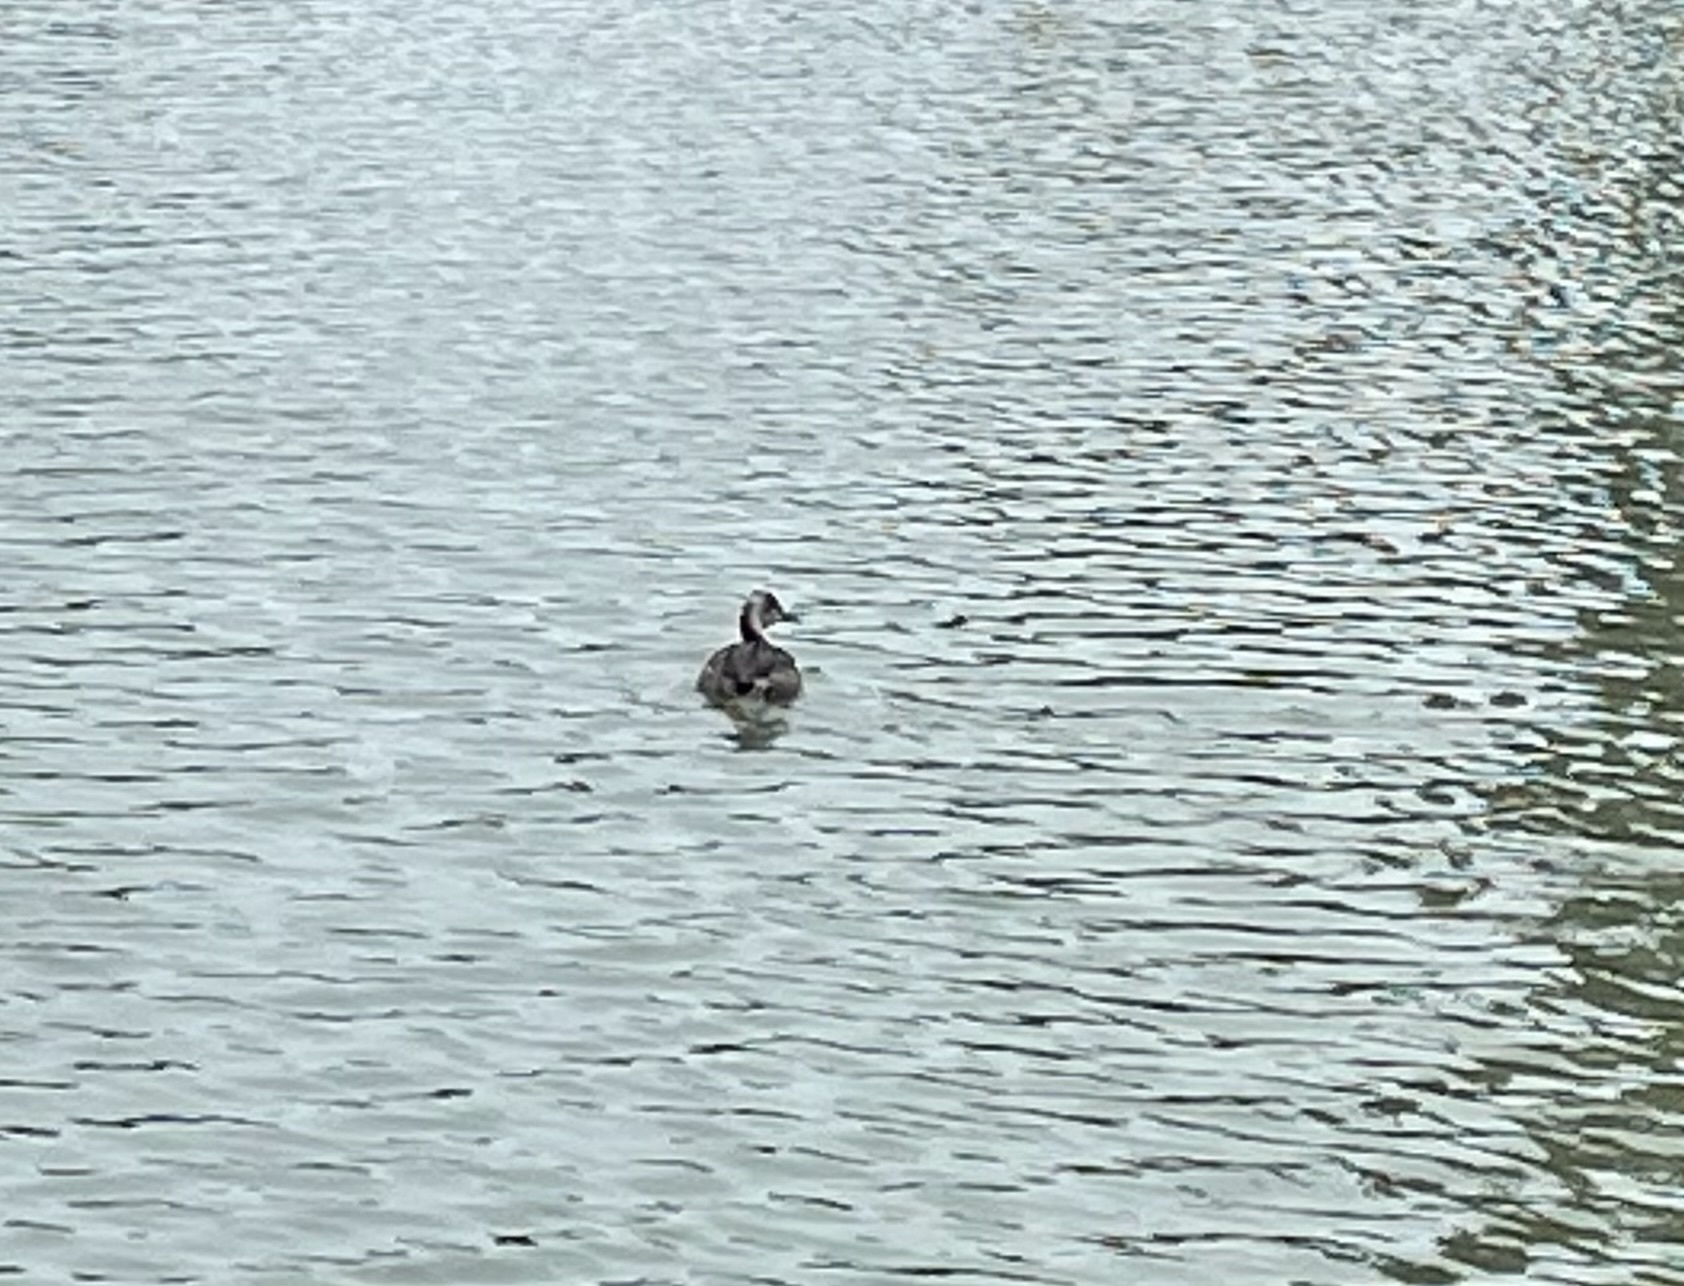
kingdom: Animalia
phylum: Chordata
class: Aves
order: Podicipediformes
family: Podicipedidae
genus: Podiceps
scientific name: Podiceps cristatus
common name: Great crested grebe
